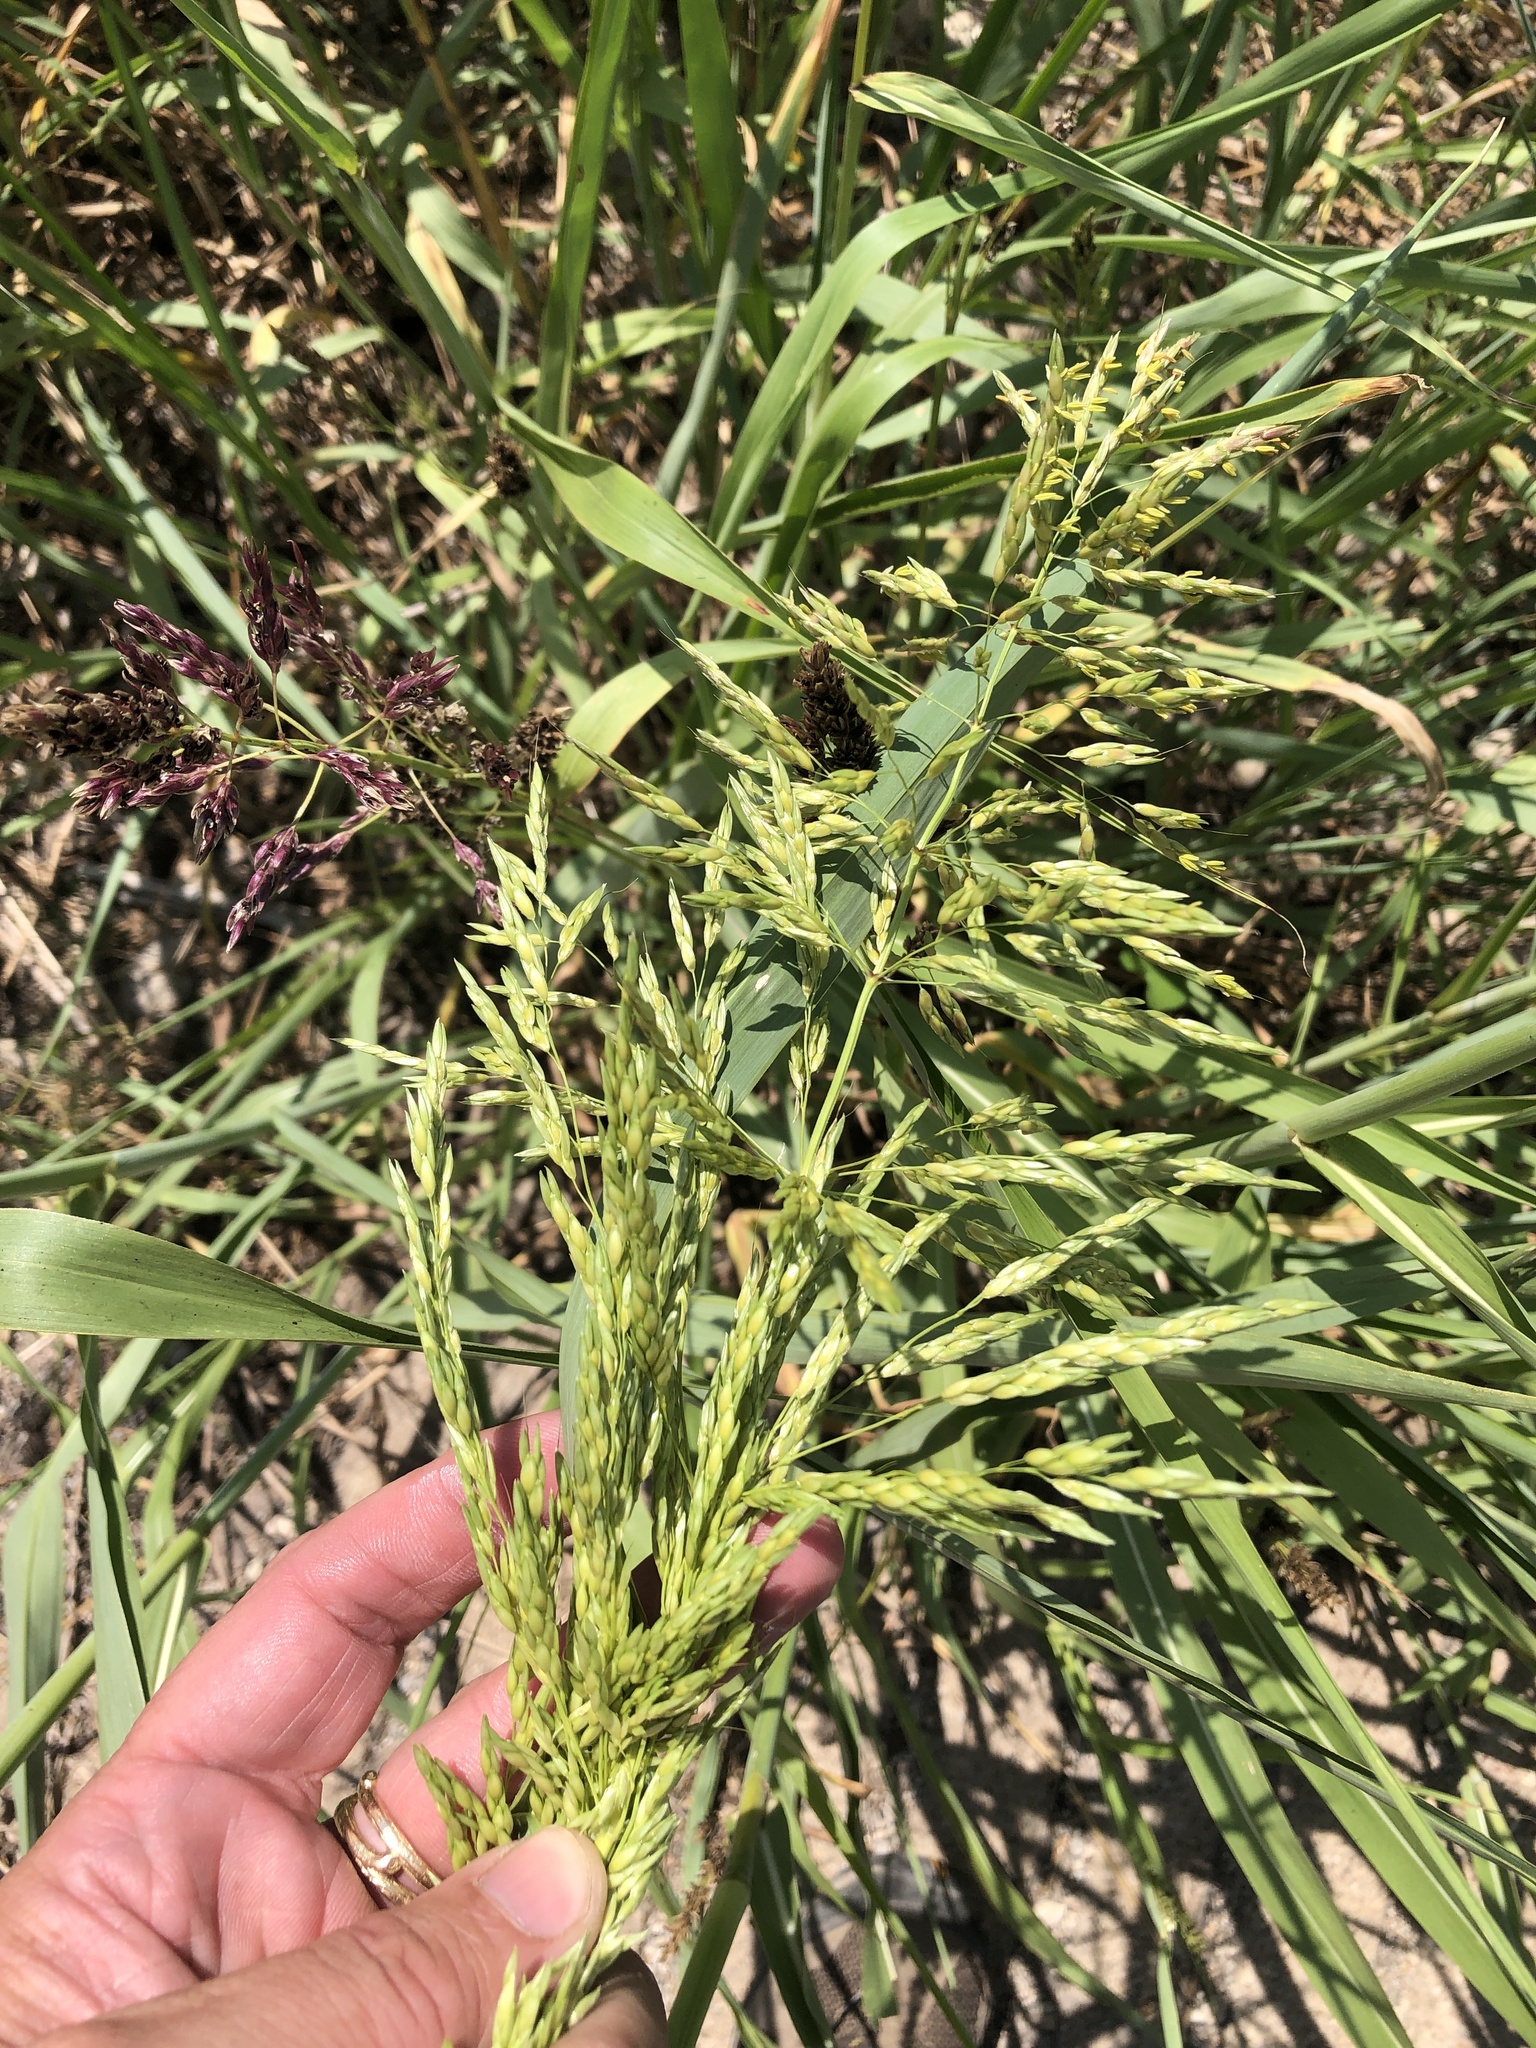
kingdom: Plantae
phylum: Tracheophyta
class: Liliopsida
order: Poales
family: Poaceae
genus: Sorghum
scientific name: Sorghum halepense
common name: Johnson-grass
